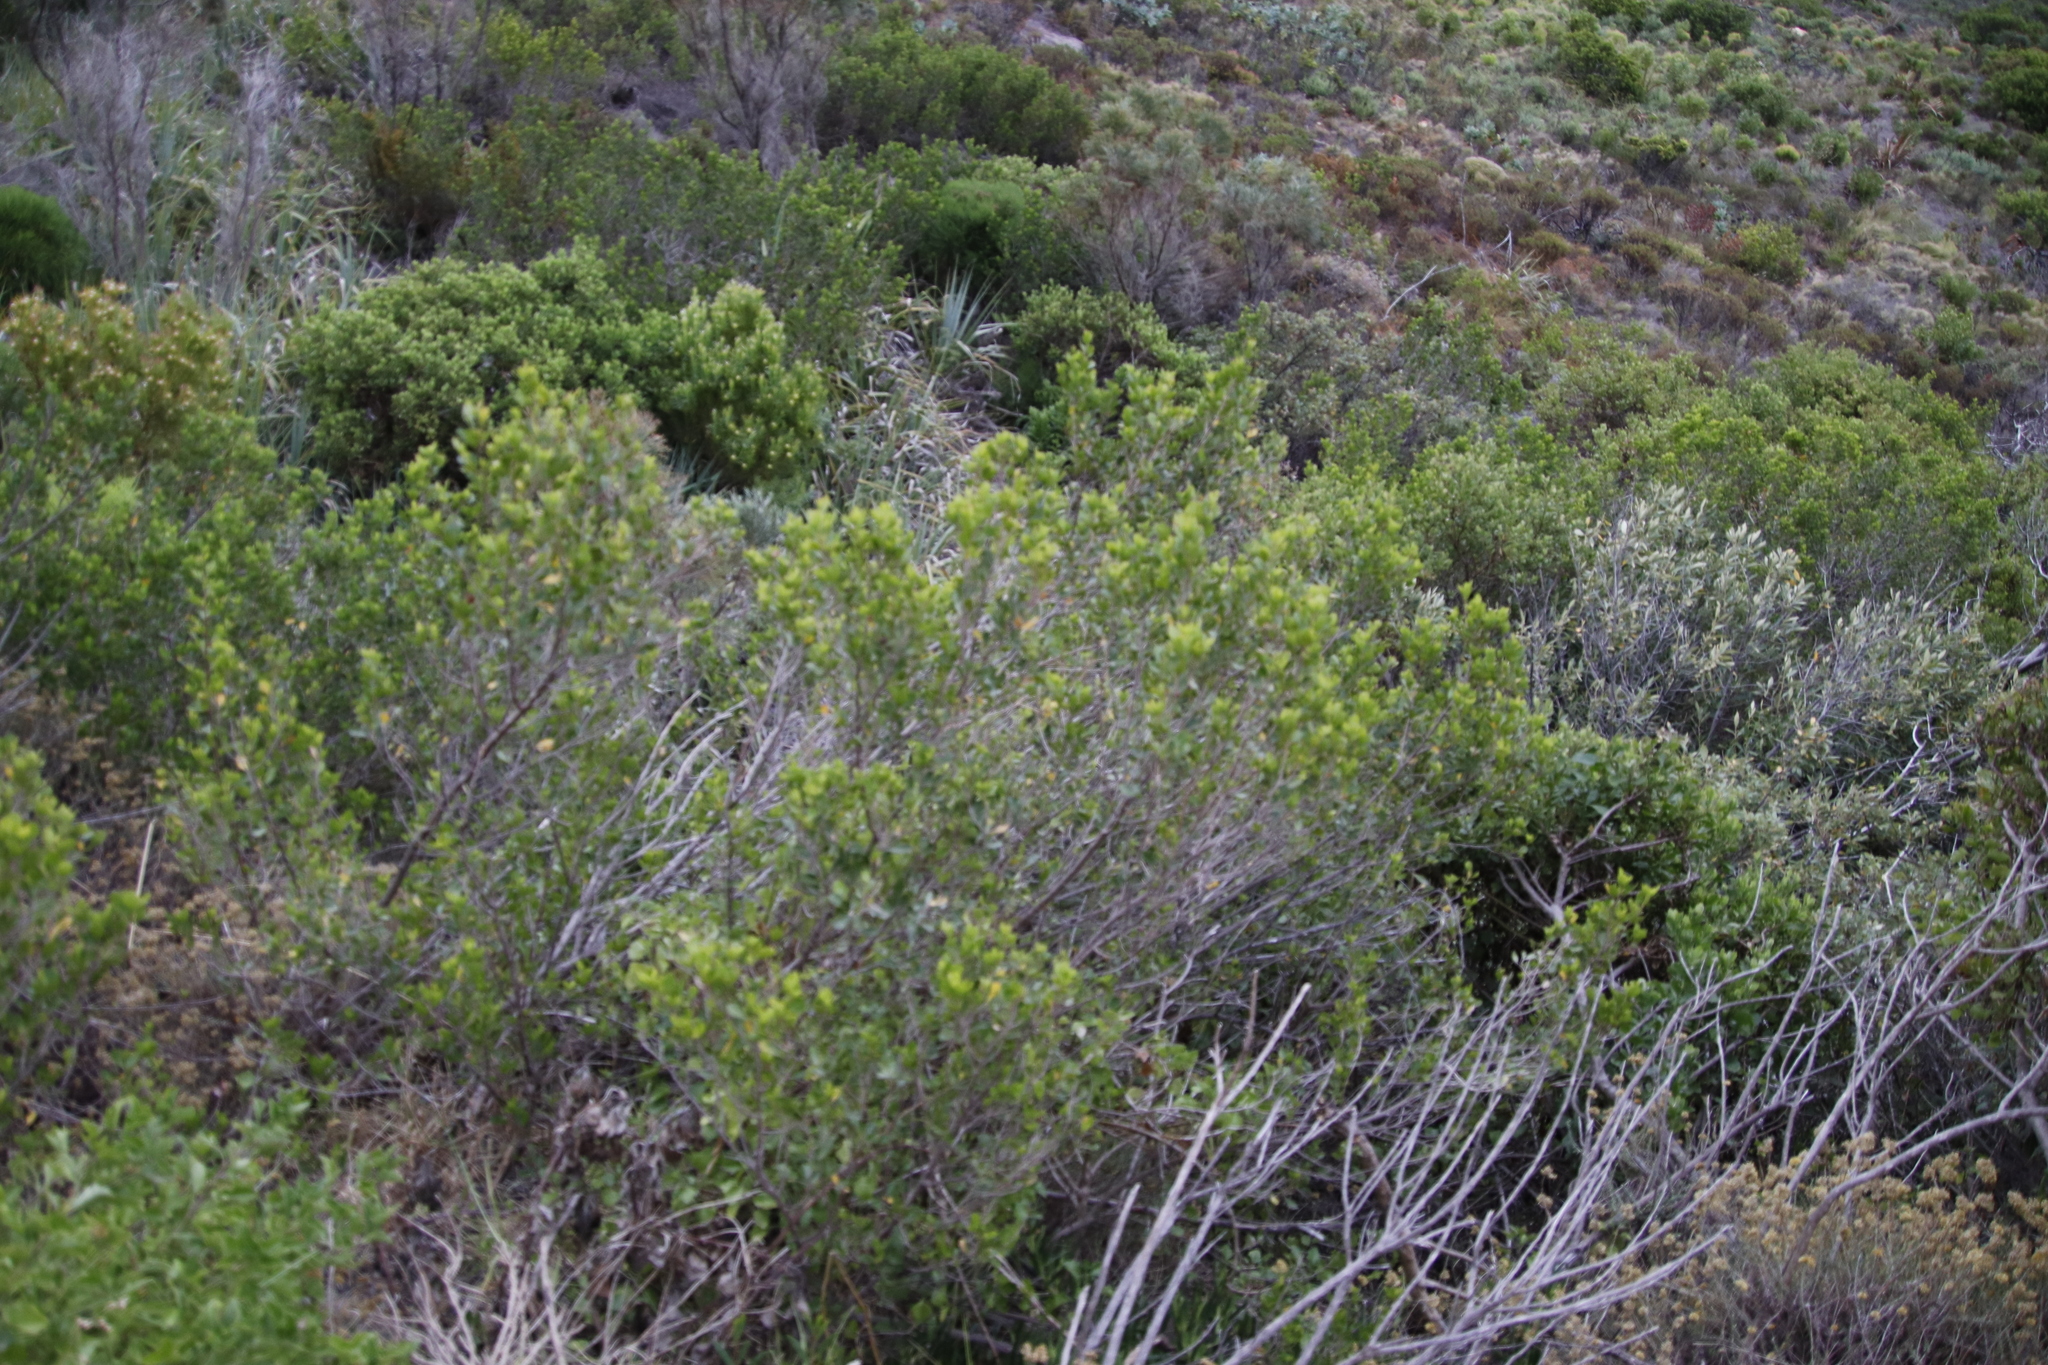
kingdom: Plantae
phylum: Tracheophyta
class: Magnoliopsida
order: Sapindales
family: Anacardiaceae
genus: Searsia
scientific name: Searsia lucida
